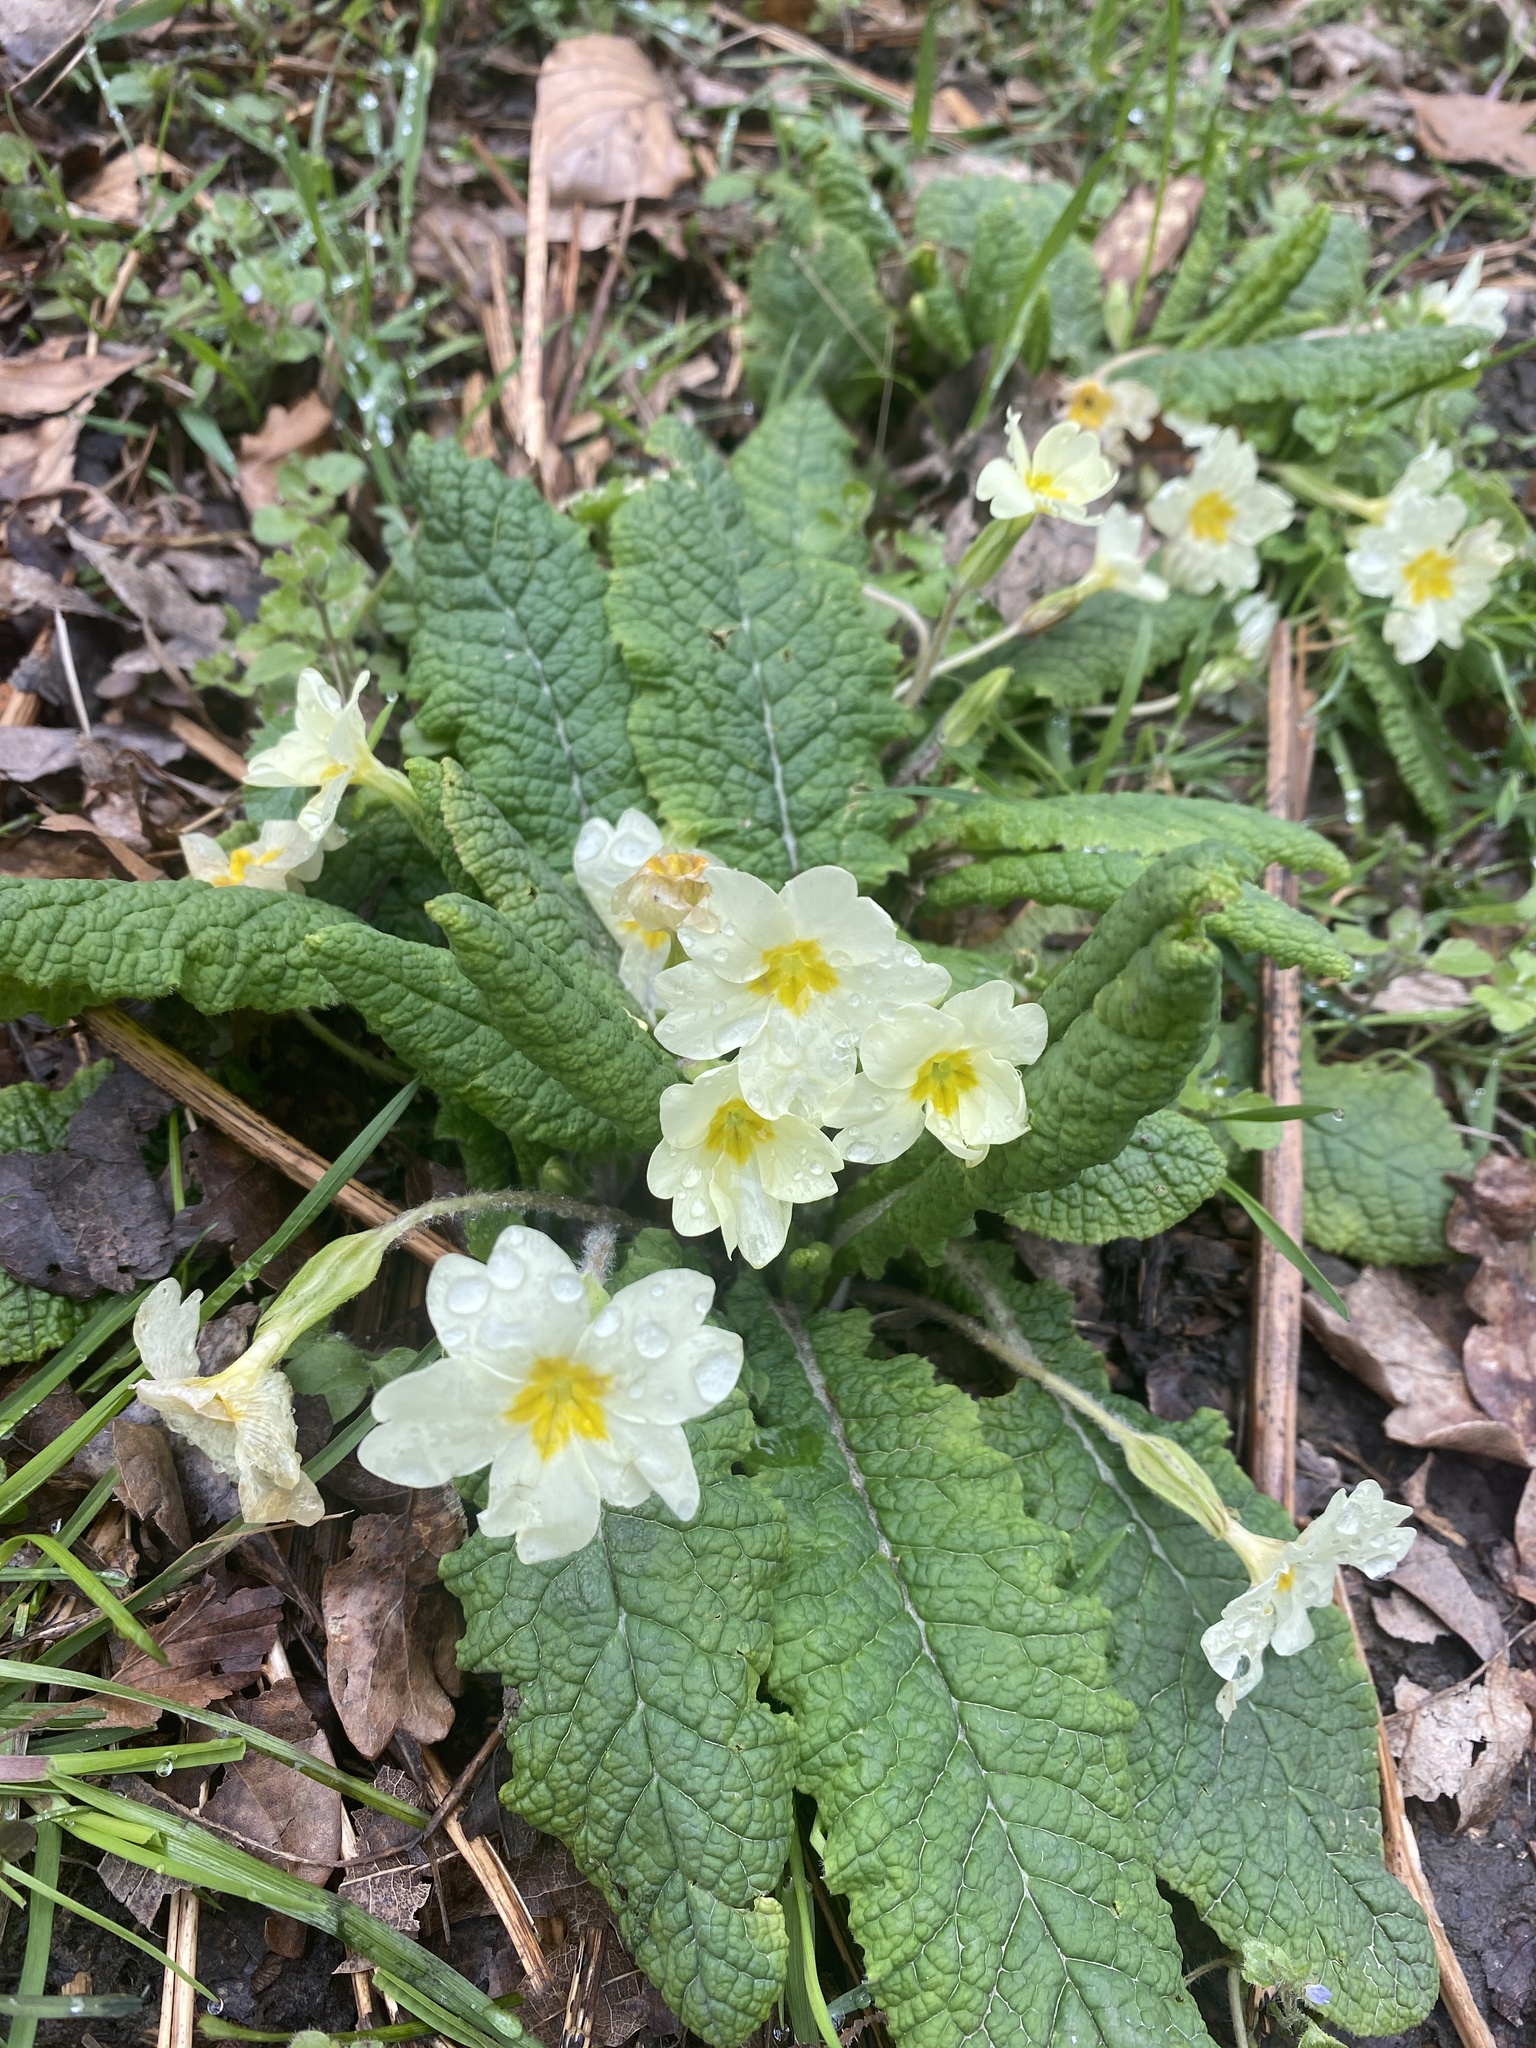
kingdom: Plantae
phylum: Tracheophyta
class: Magnoliopsida
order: Ericales
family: Primulaceae
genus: Primula
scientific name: Primula vulgaris
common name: Primrose
